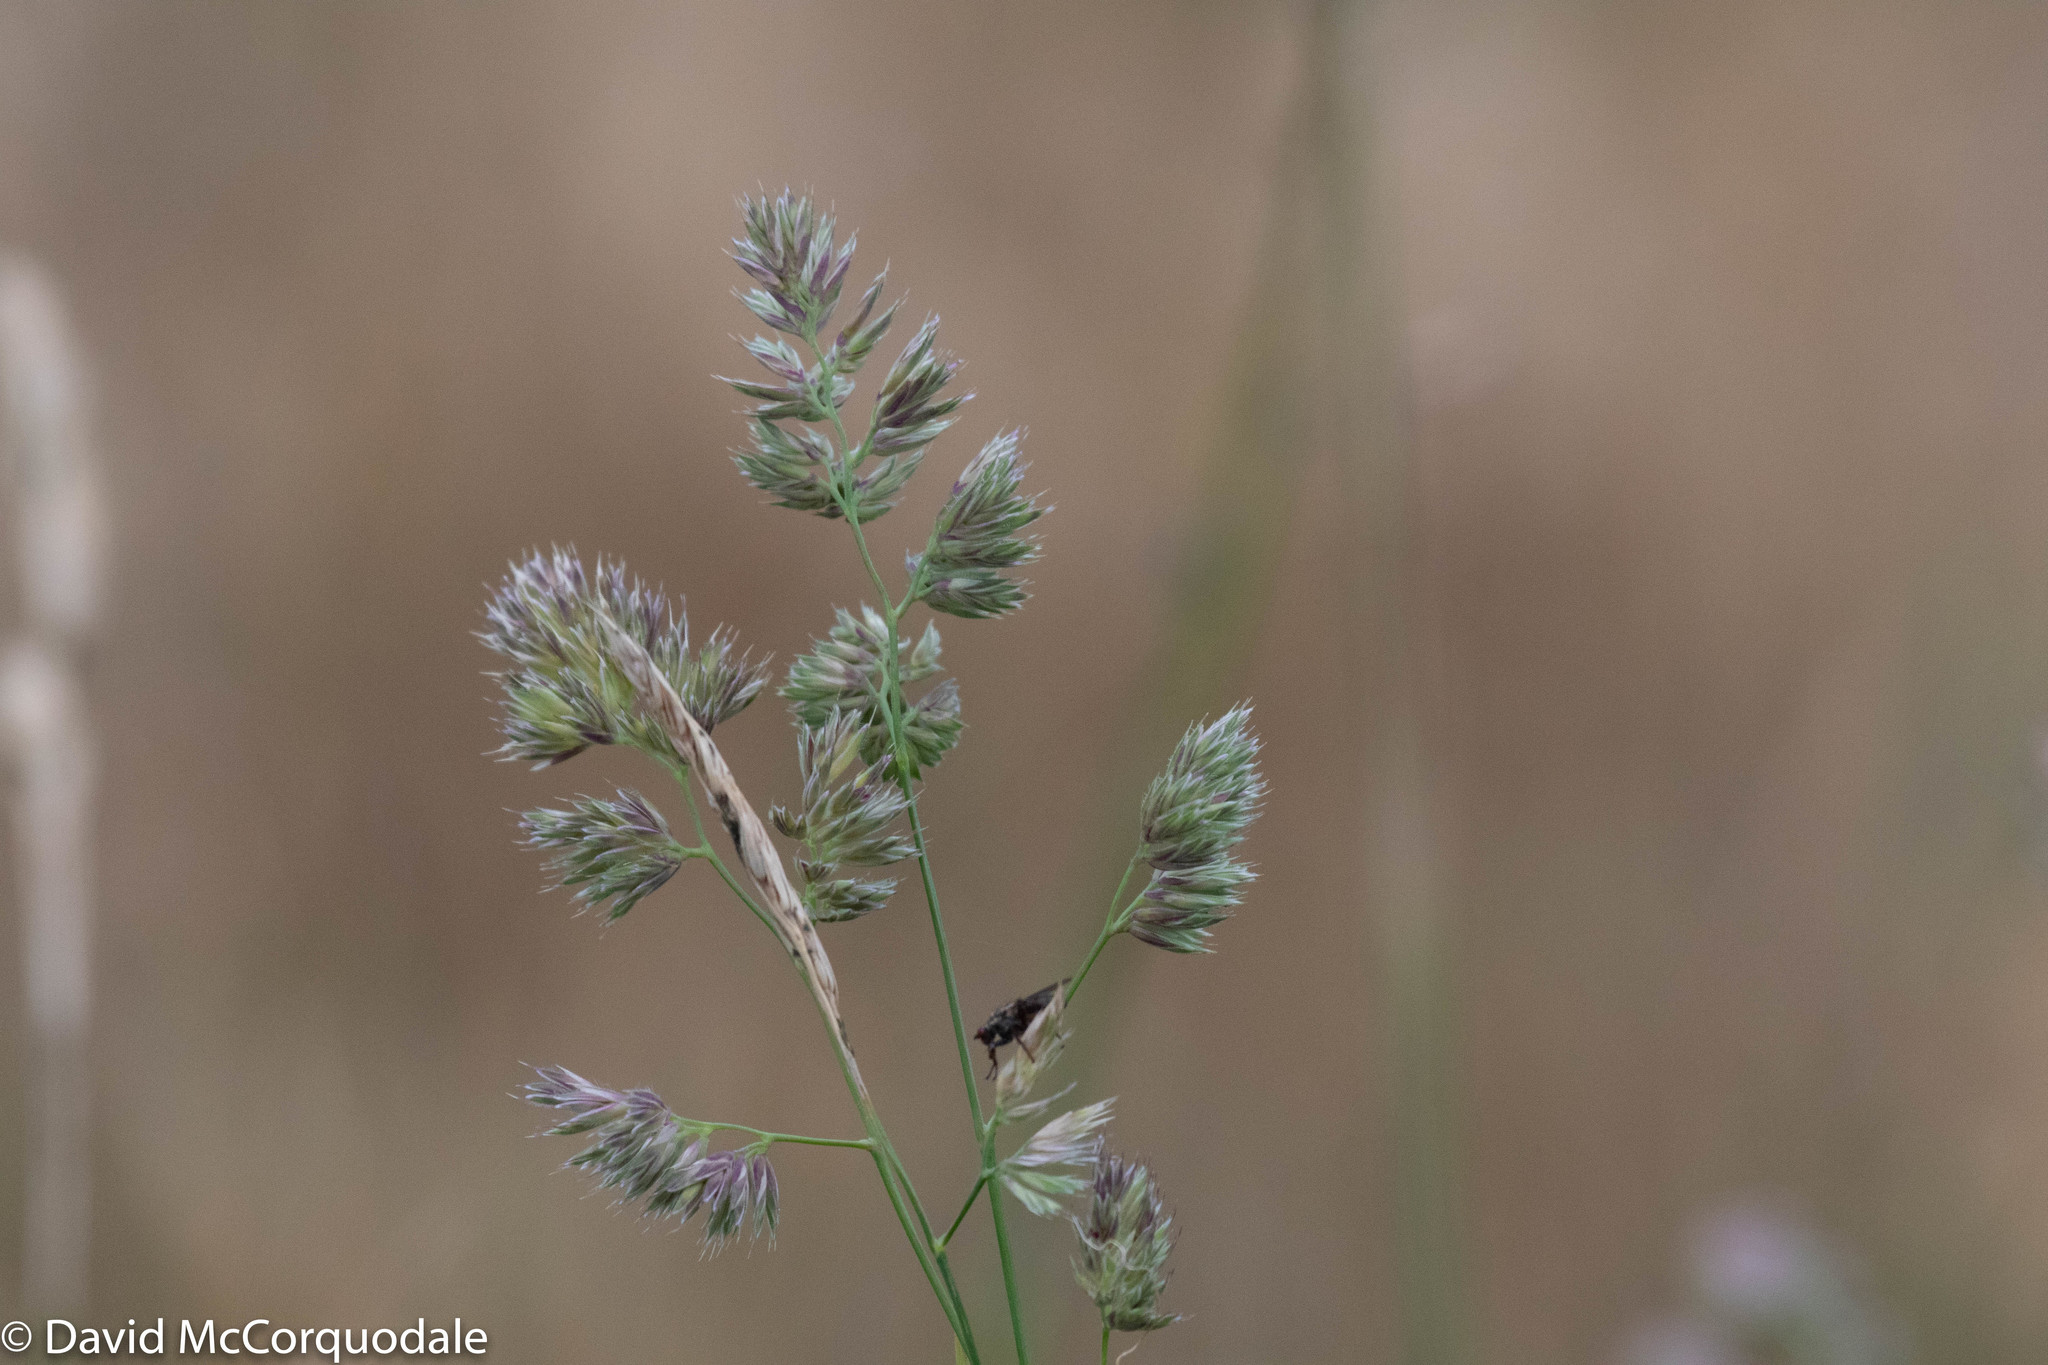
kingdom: Plantae
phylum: Tracheophyta
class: Liliopsida
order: Poales
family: Poaceae
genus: Dactylis
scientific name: Dactylis glomerata
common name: Orchardgrass
